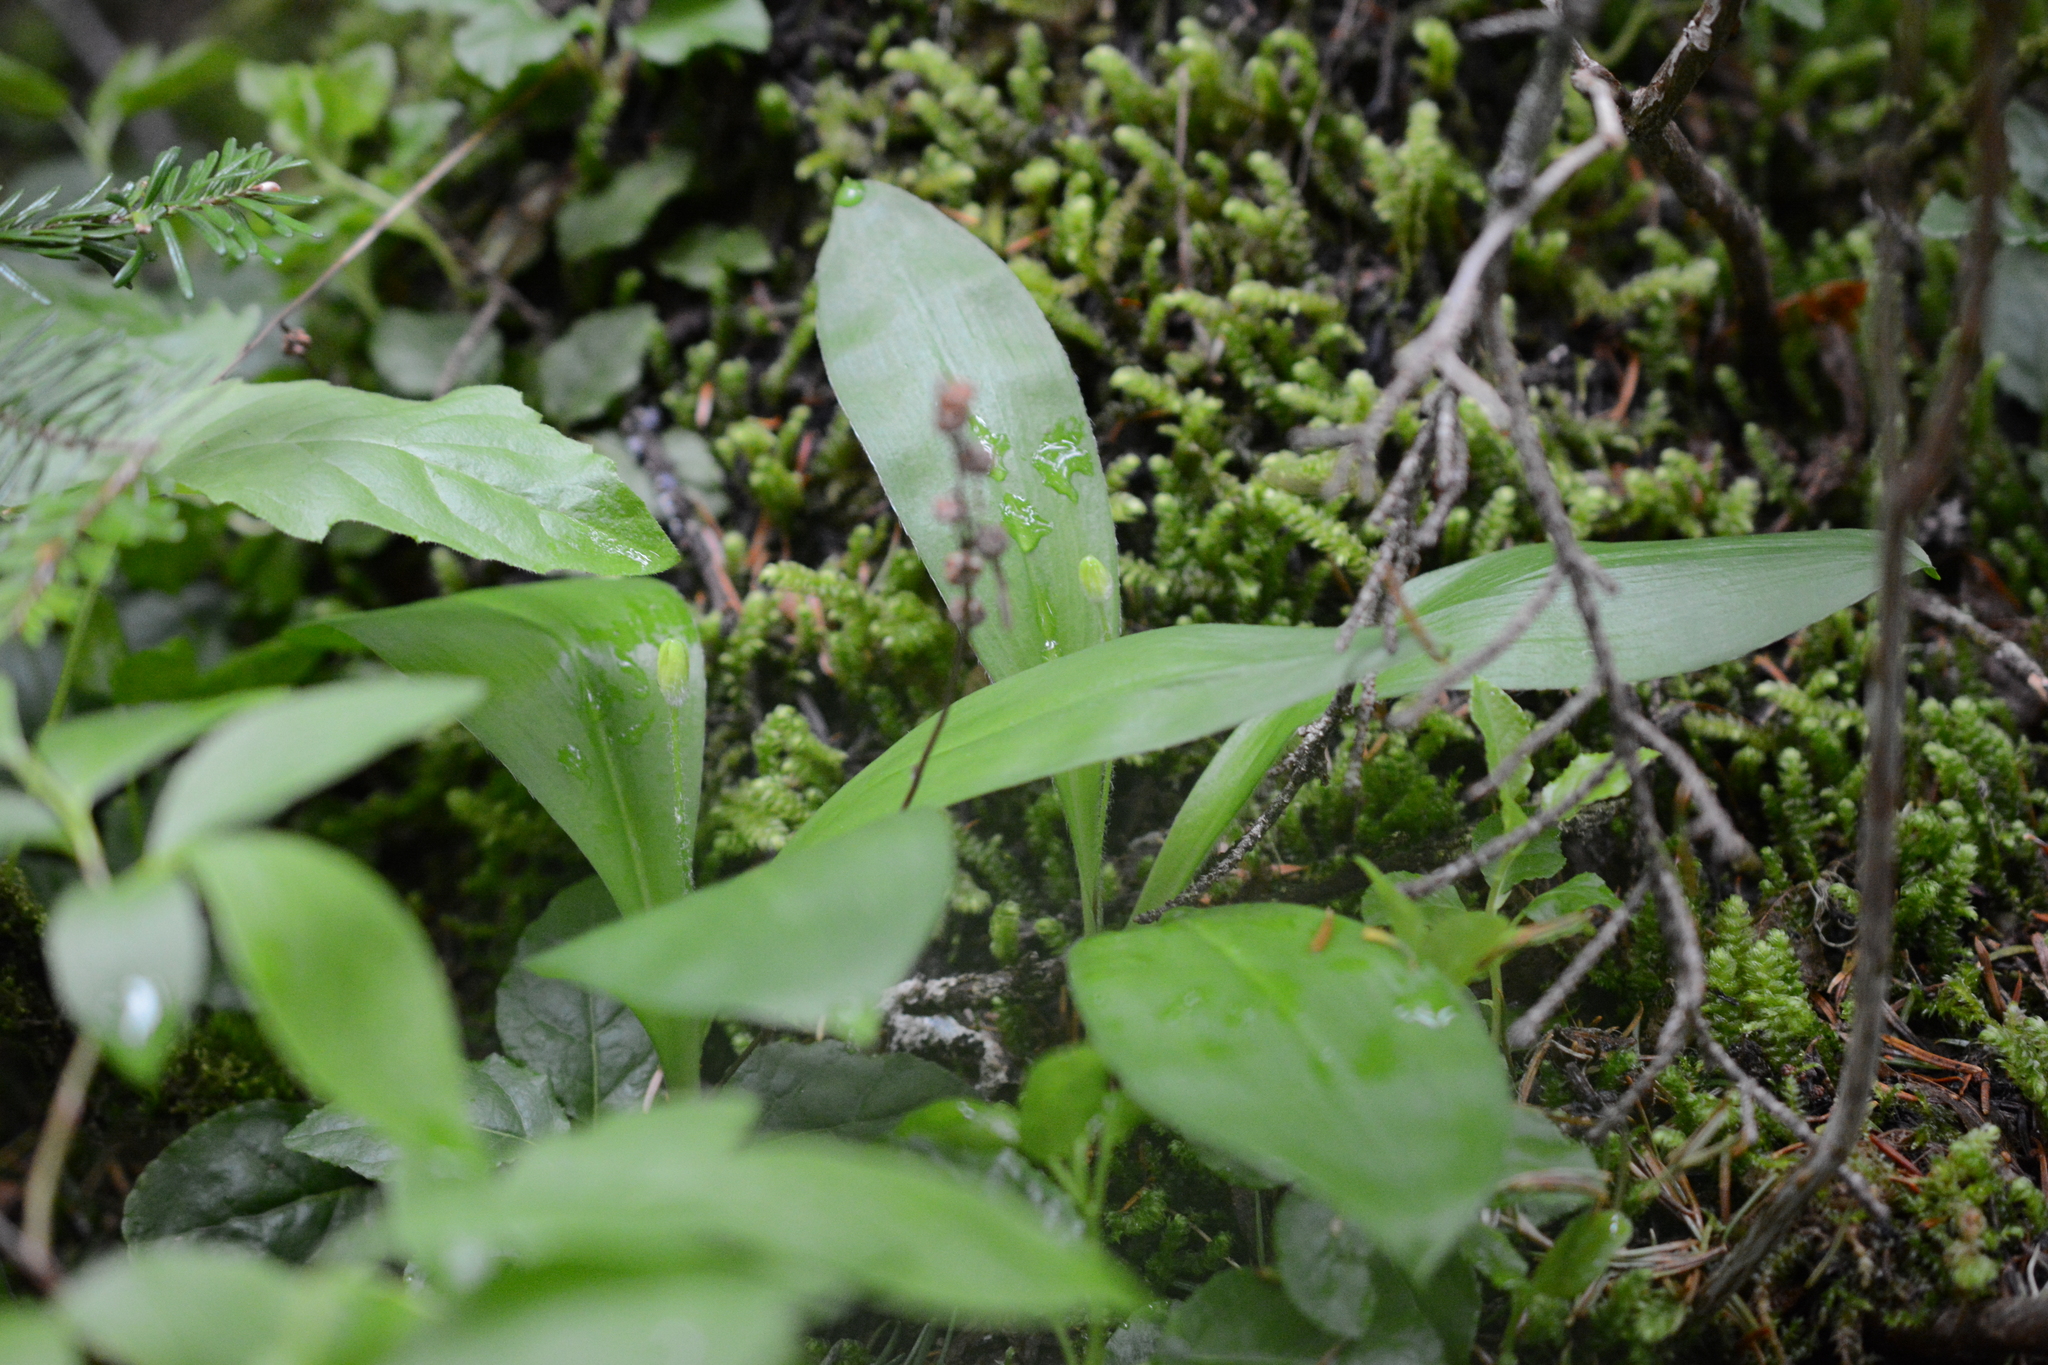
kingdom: Plantae
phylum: Tracheophyta
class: Liliopsida
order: Liliales
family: Liliaceae
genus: Clintonia
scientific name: Clintonia uniflora
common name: Queen's cup
